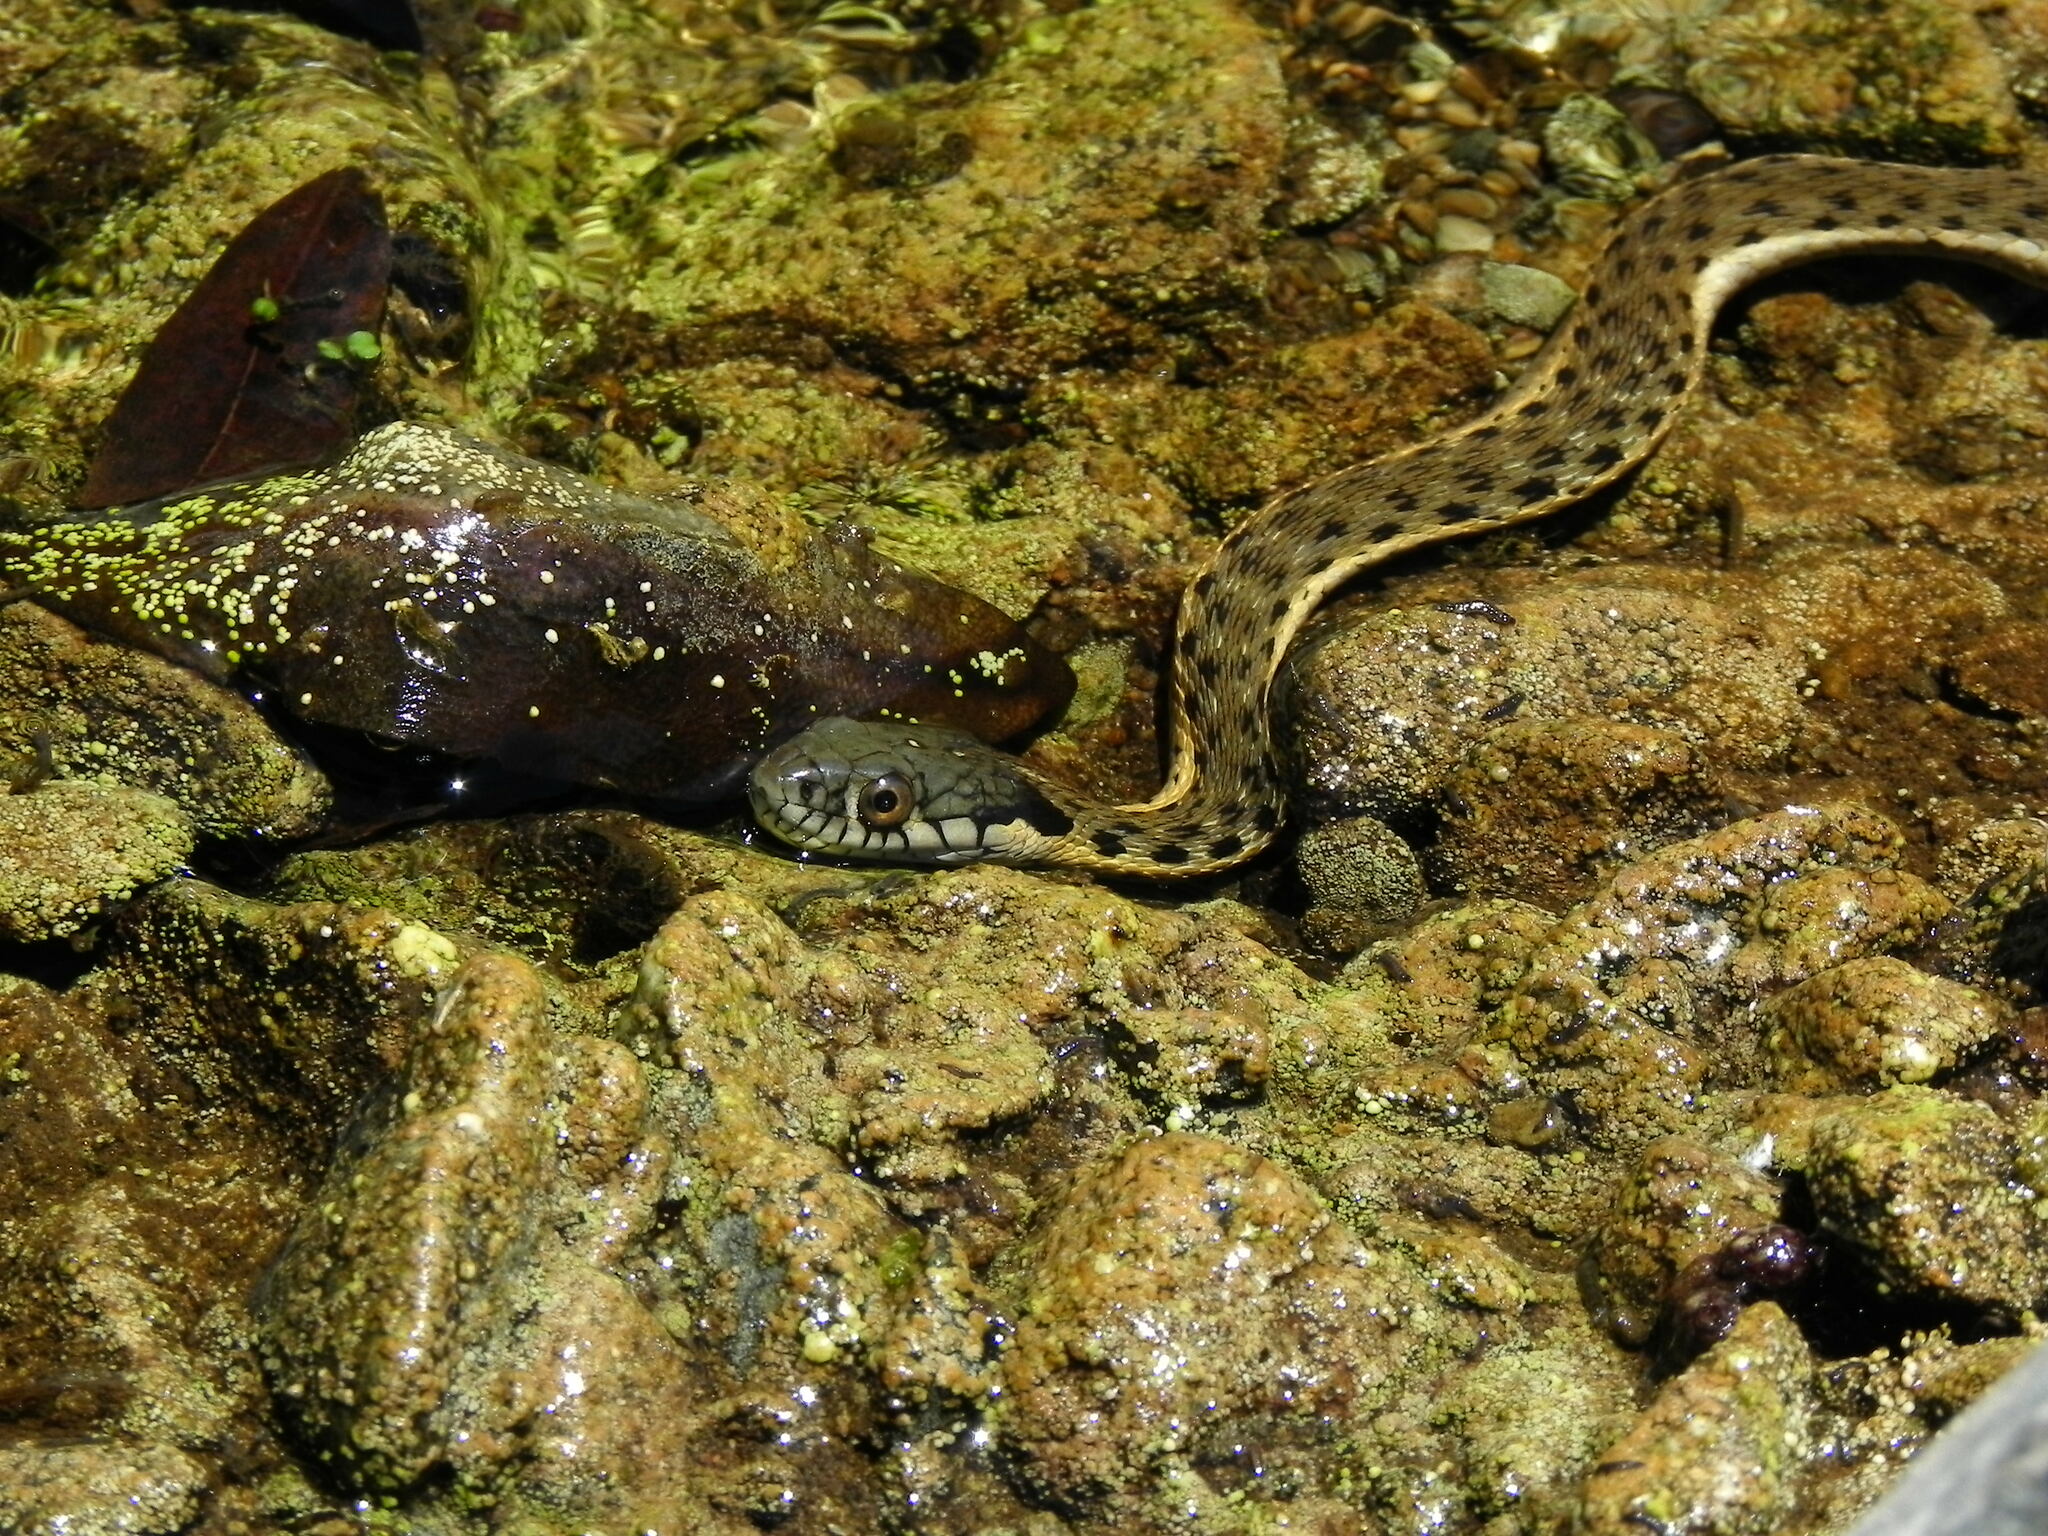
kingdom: Animalia
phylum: Chordata
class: Squamata
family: Colubridae
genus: Thamnophis
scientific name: Thamnophis hammondii
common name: Two-striped garter snake
